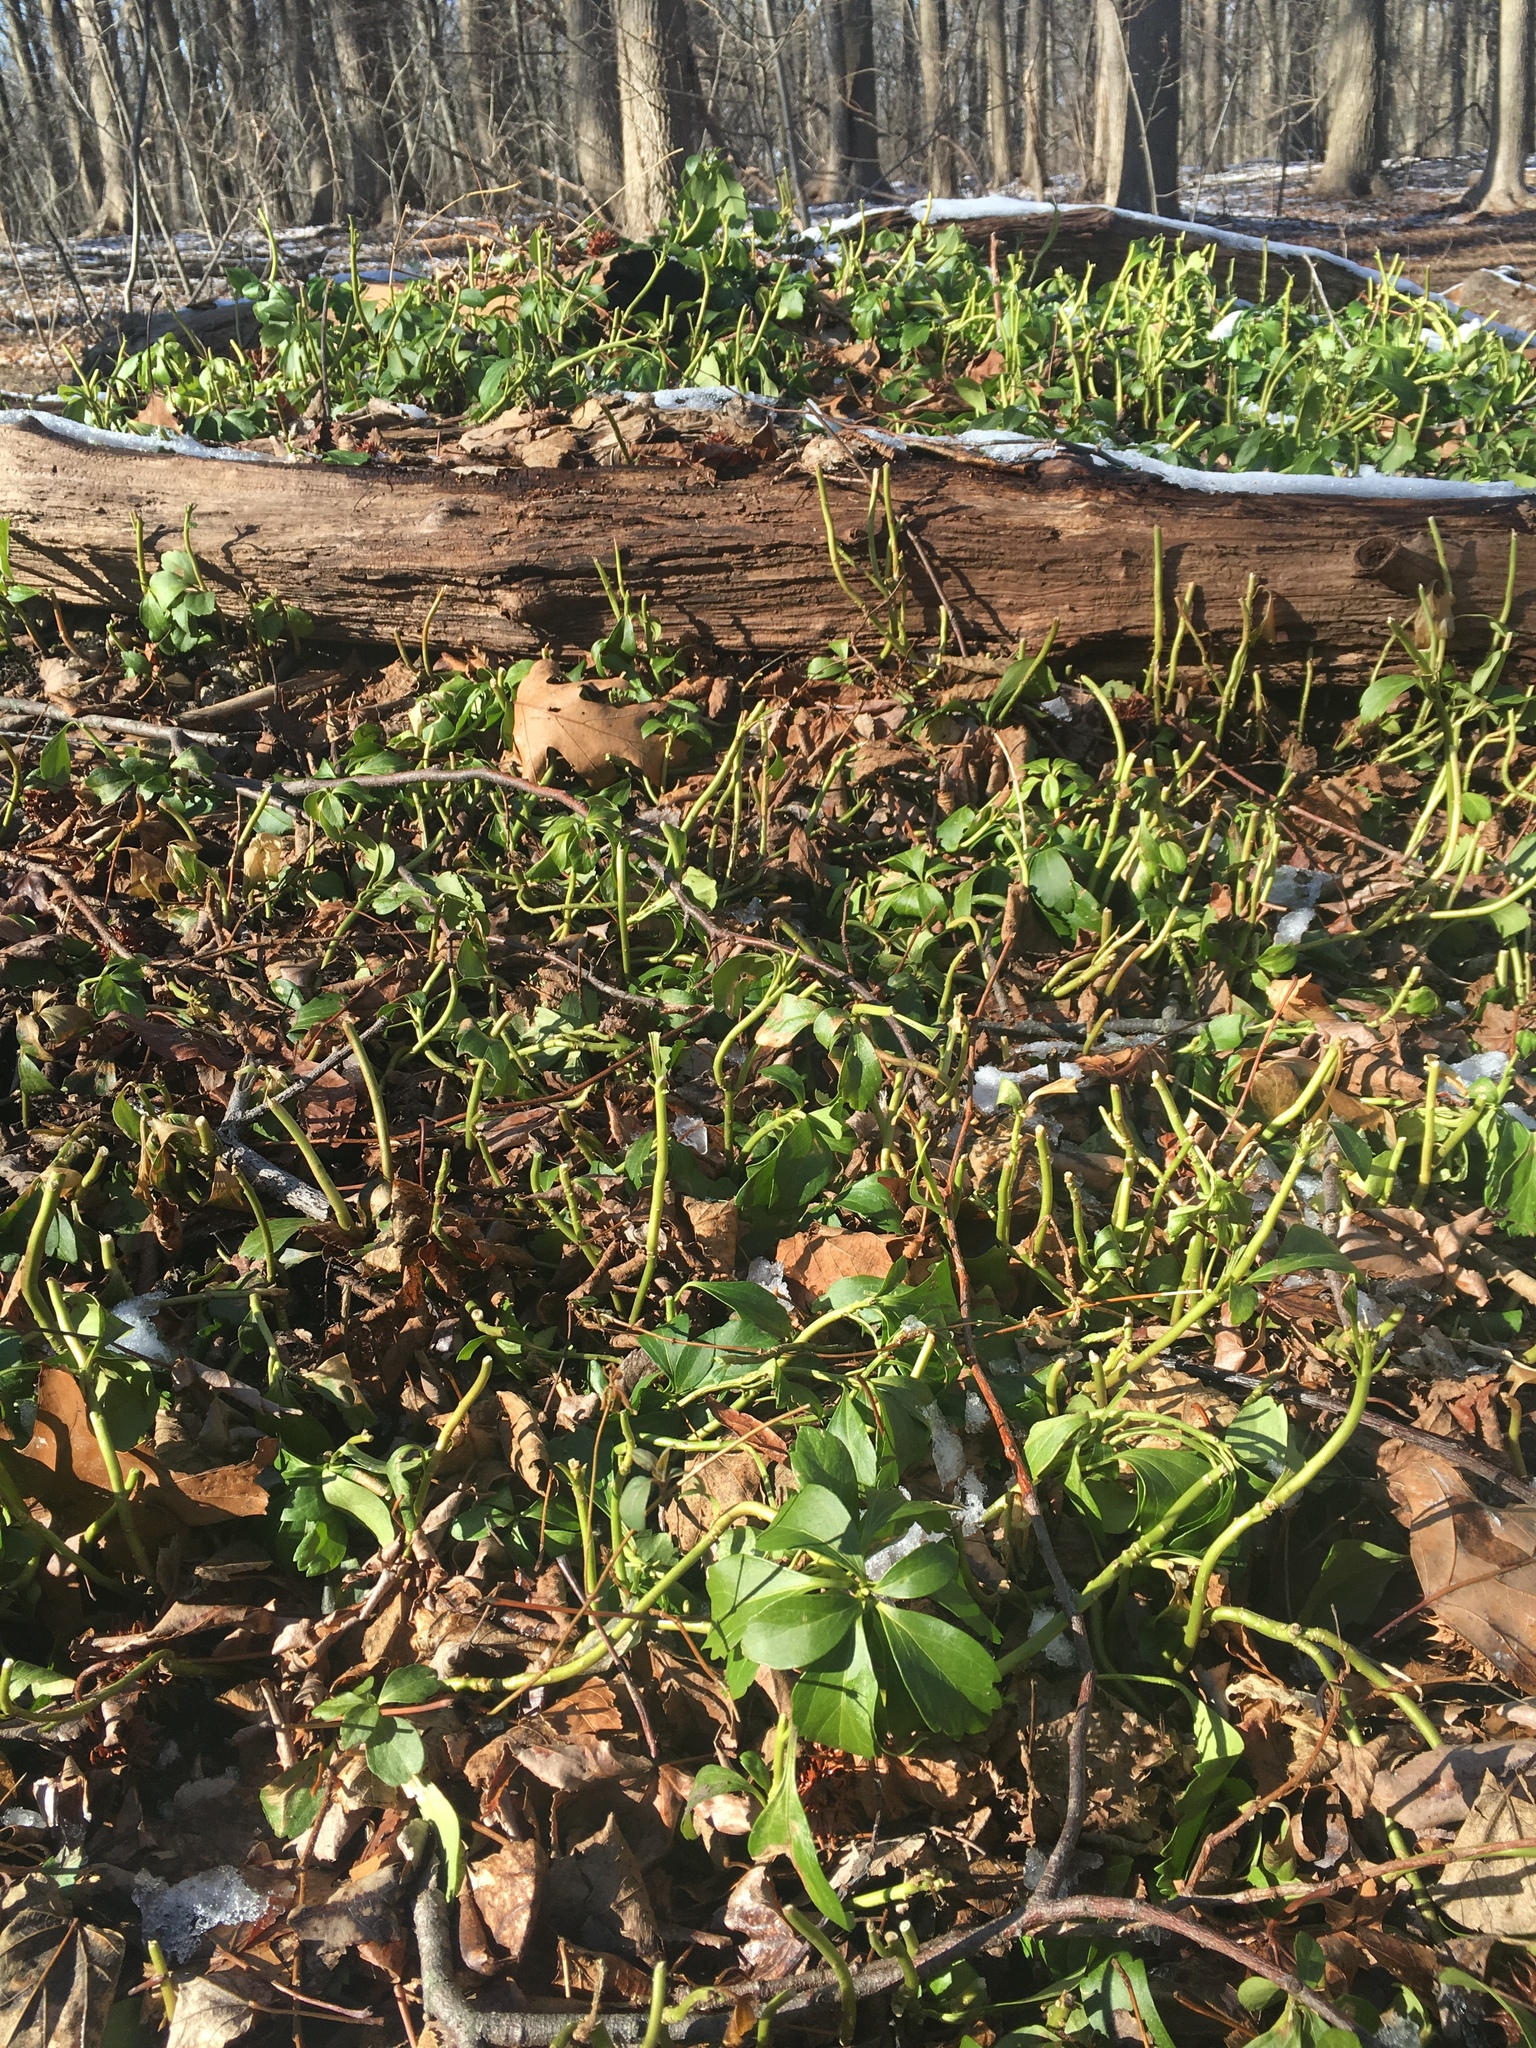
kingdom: Plantae
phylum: Tracheophyta
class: Magnoliopsida
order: Buxales
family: Buxaceae
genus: Pachysandra
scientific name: Pachysandra terminalis
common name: Japanese pachysandra
